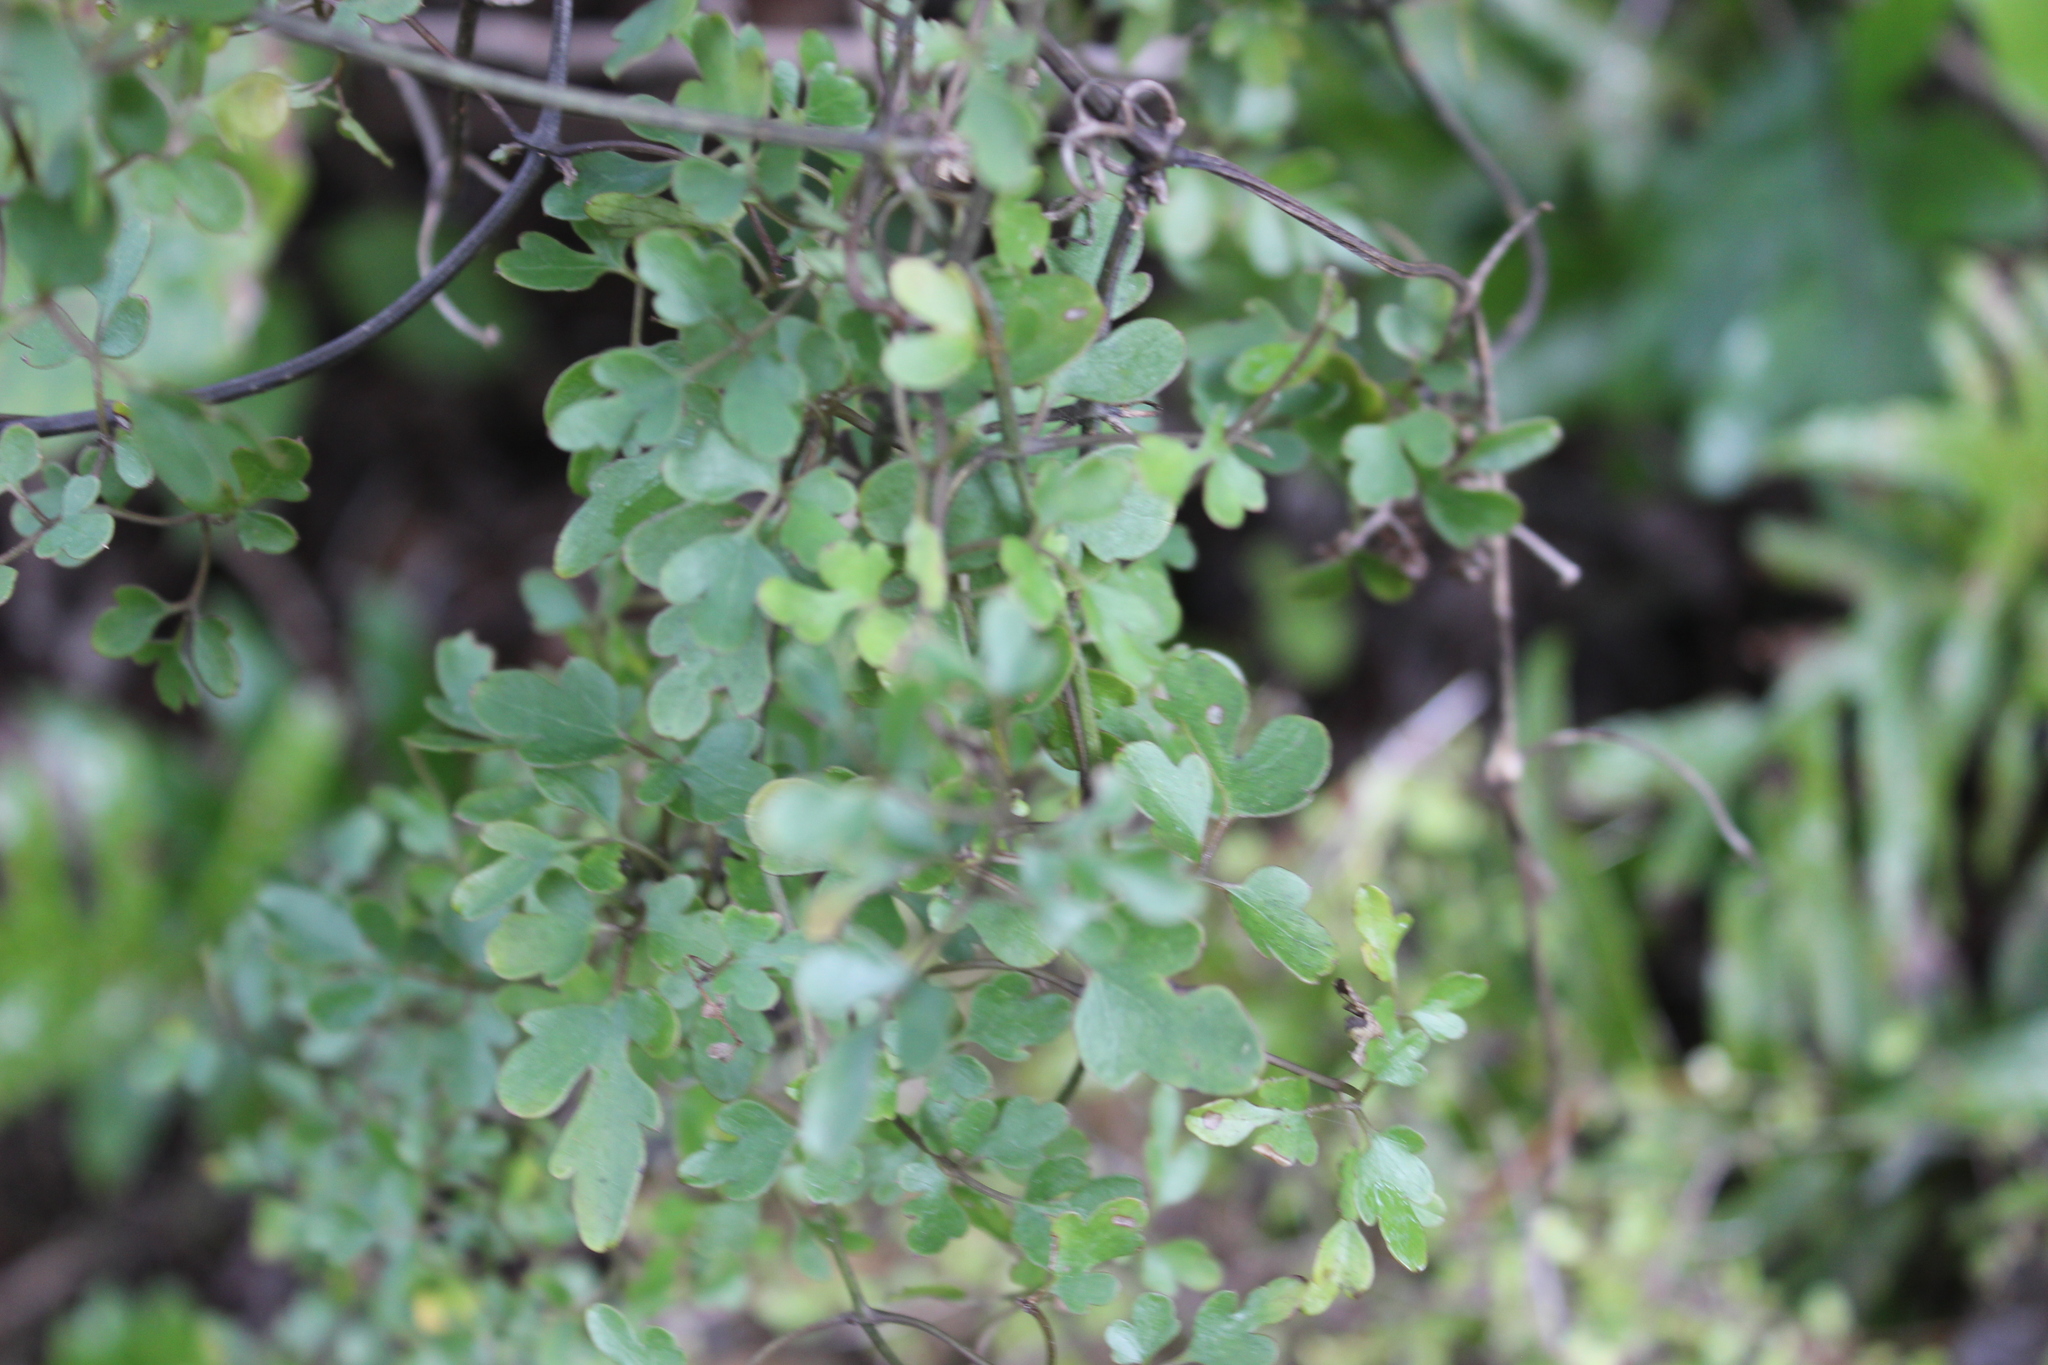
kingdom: Plantae
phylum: Tracheophyta
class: Magnoliopsida
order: Ranunculales
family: Ranunculaceae
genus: Clematis
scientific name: Clematis forsteri
